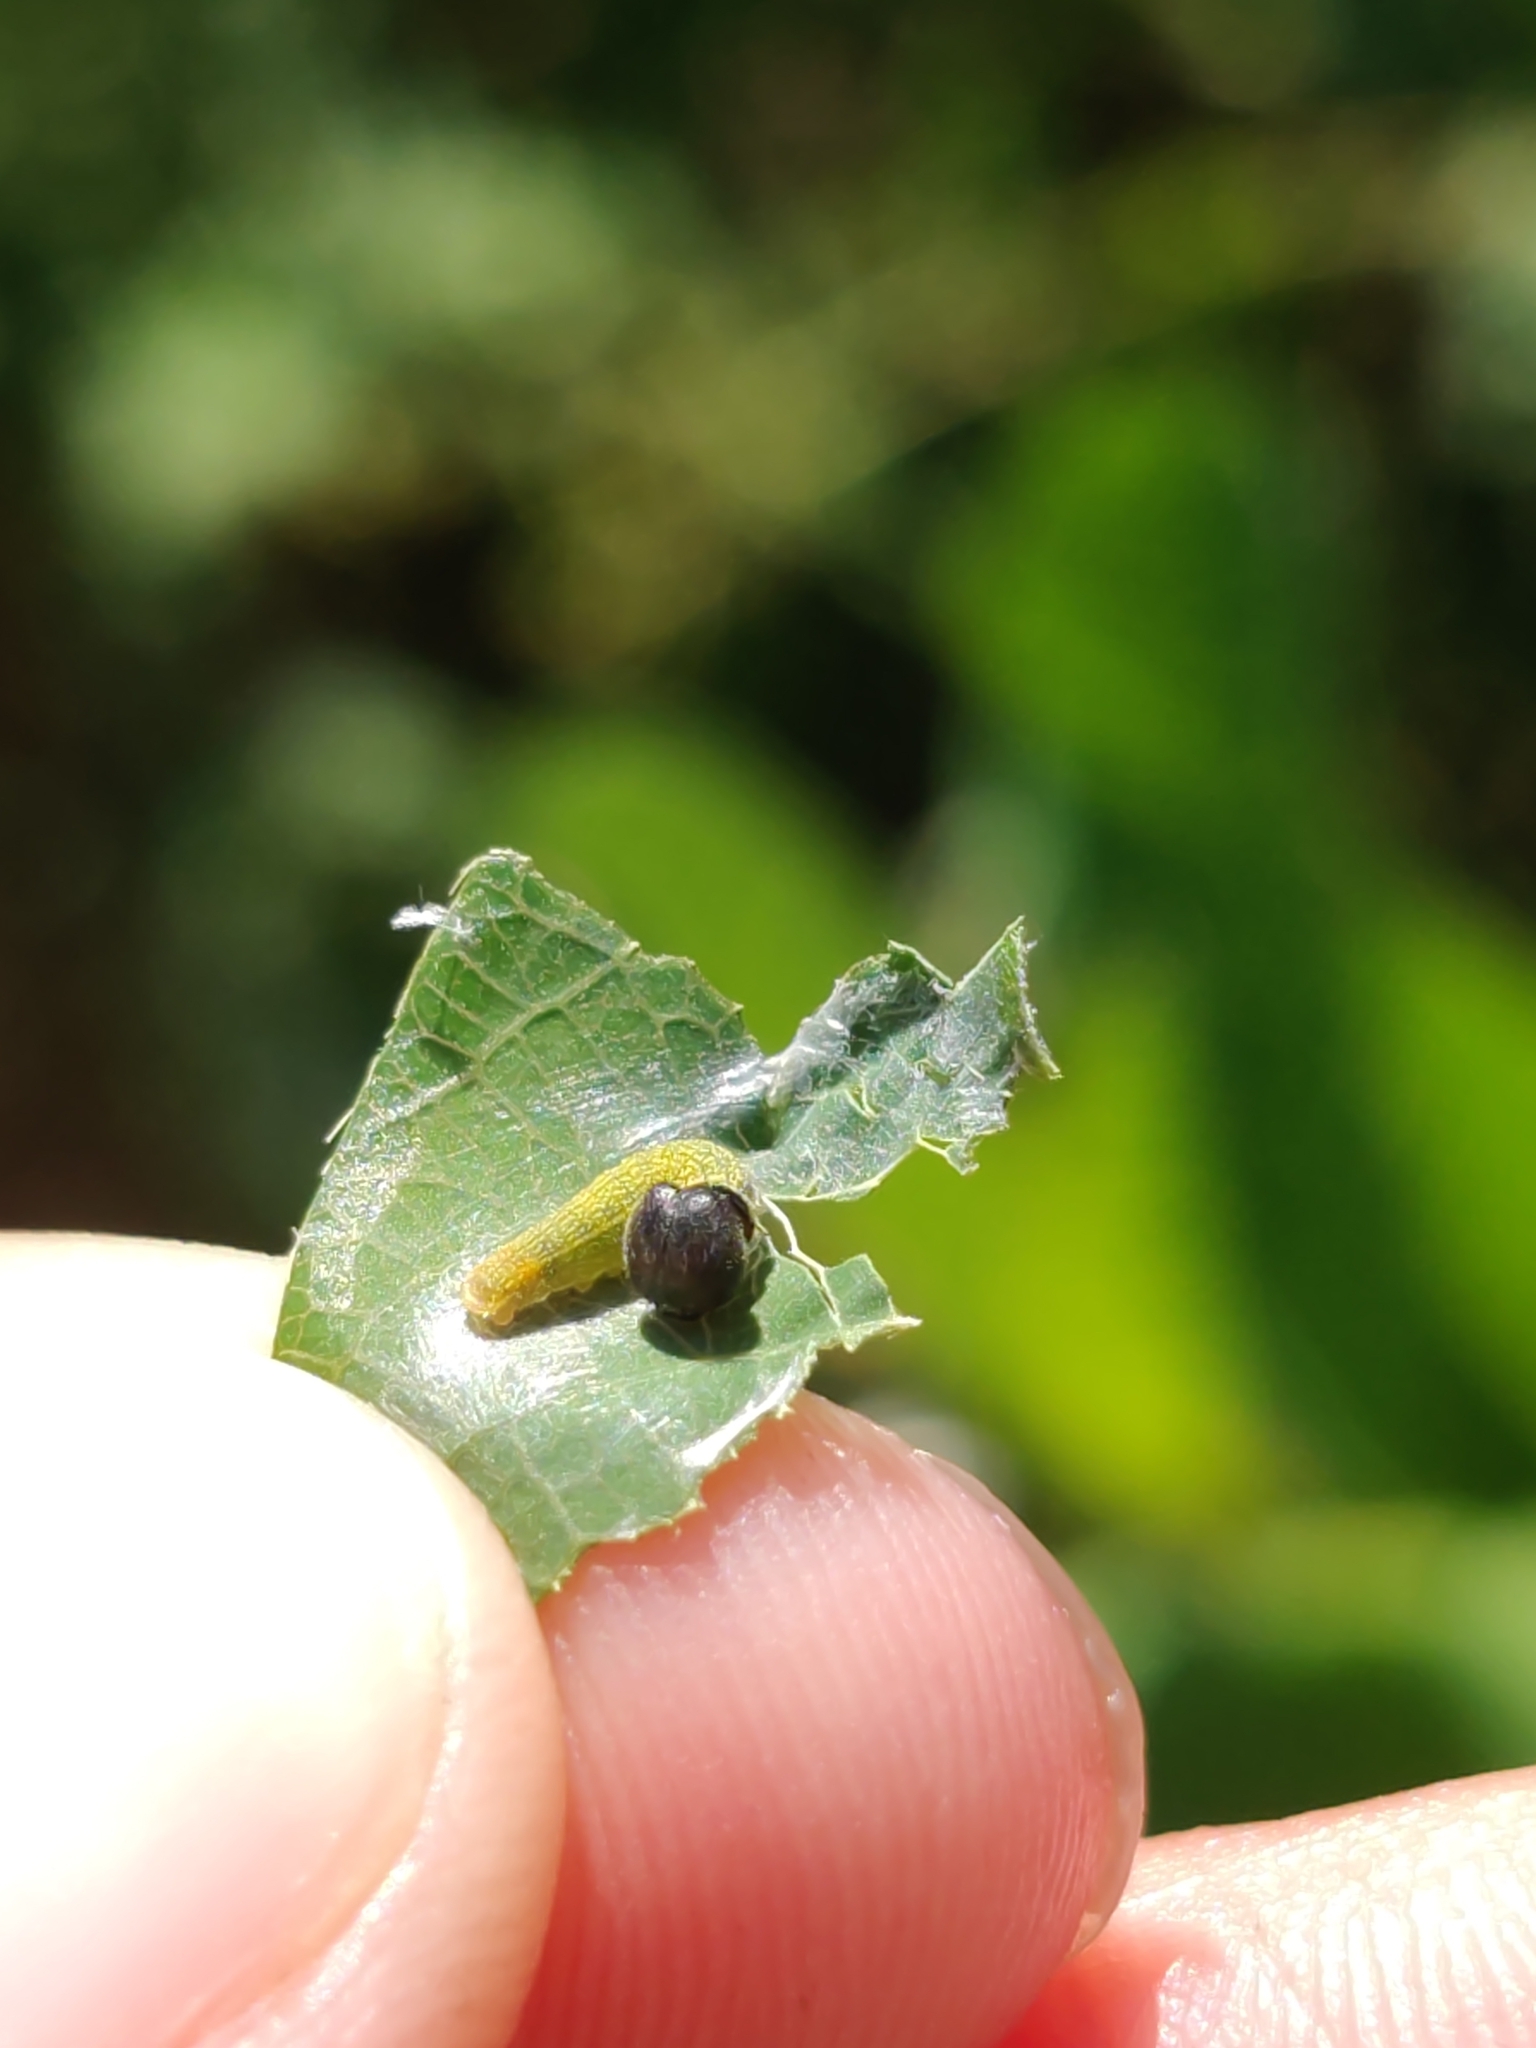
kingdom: Animalia
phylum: Arthropoda
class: Insecta
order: Lepidoptera
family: Hesperiidae
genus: Urbanus
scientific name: Urbanus proteus
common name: Long-tailed skipper
